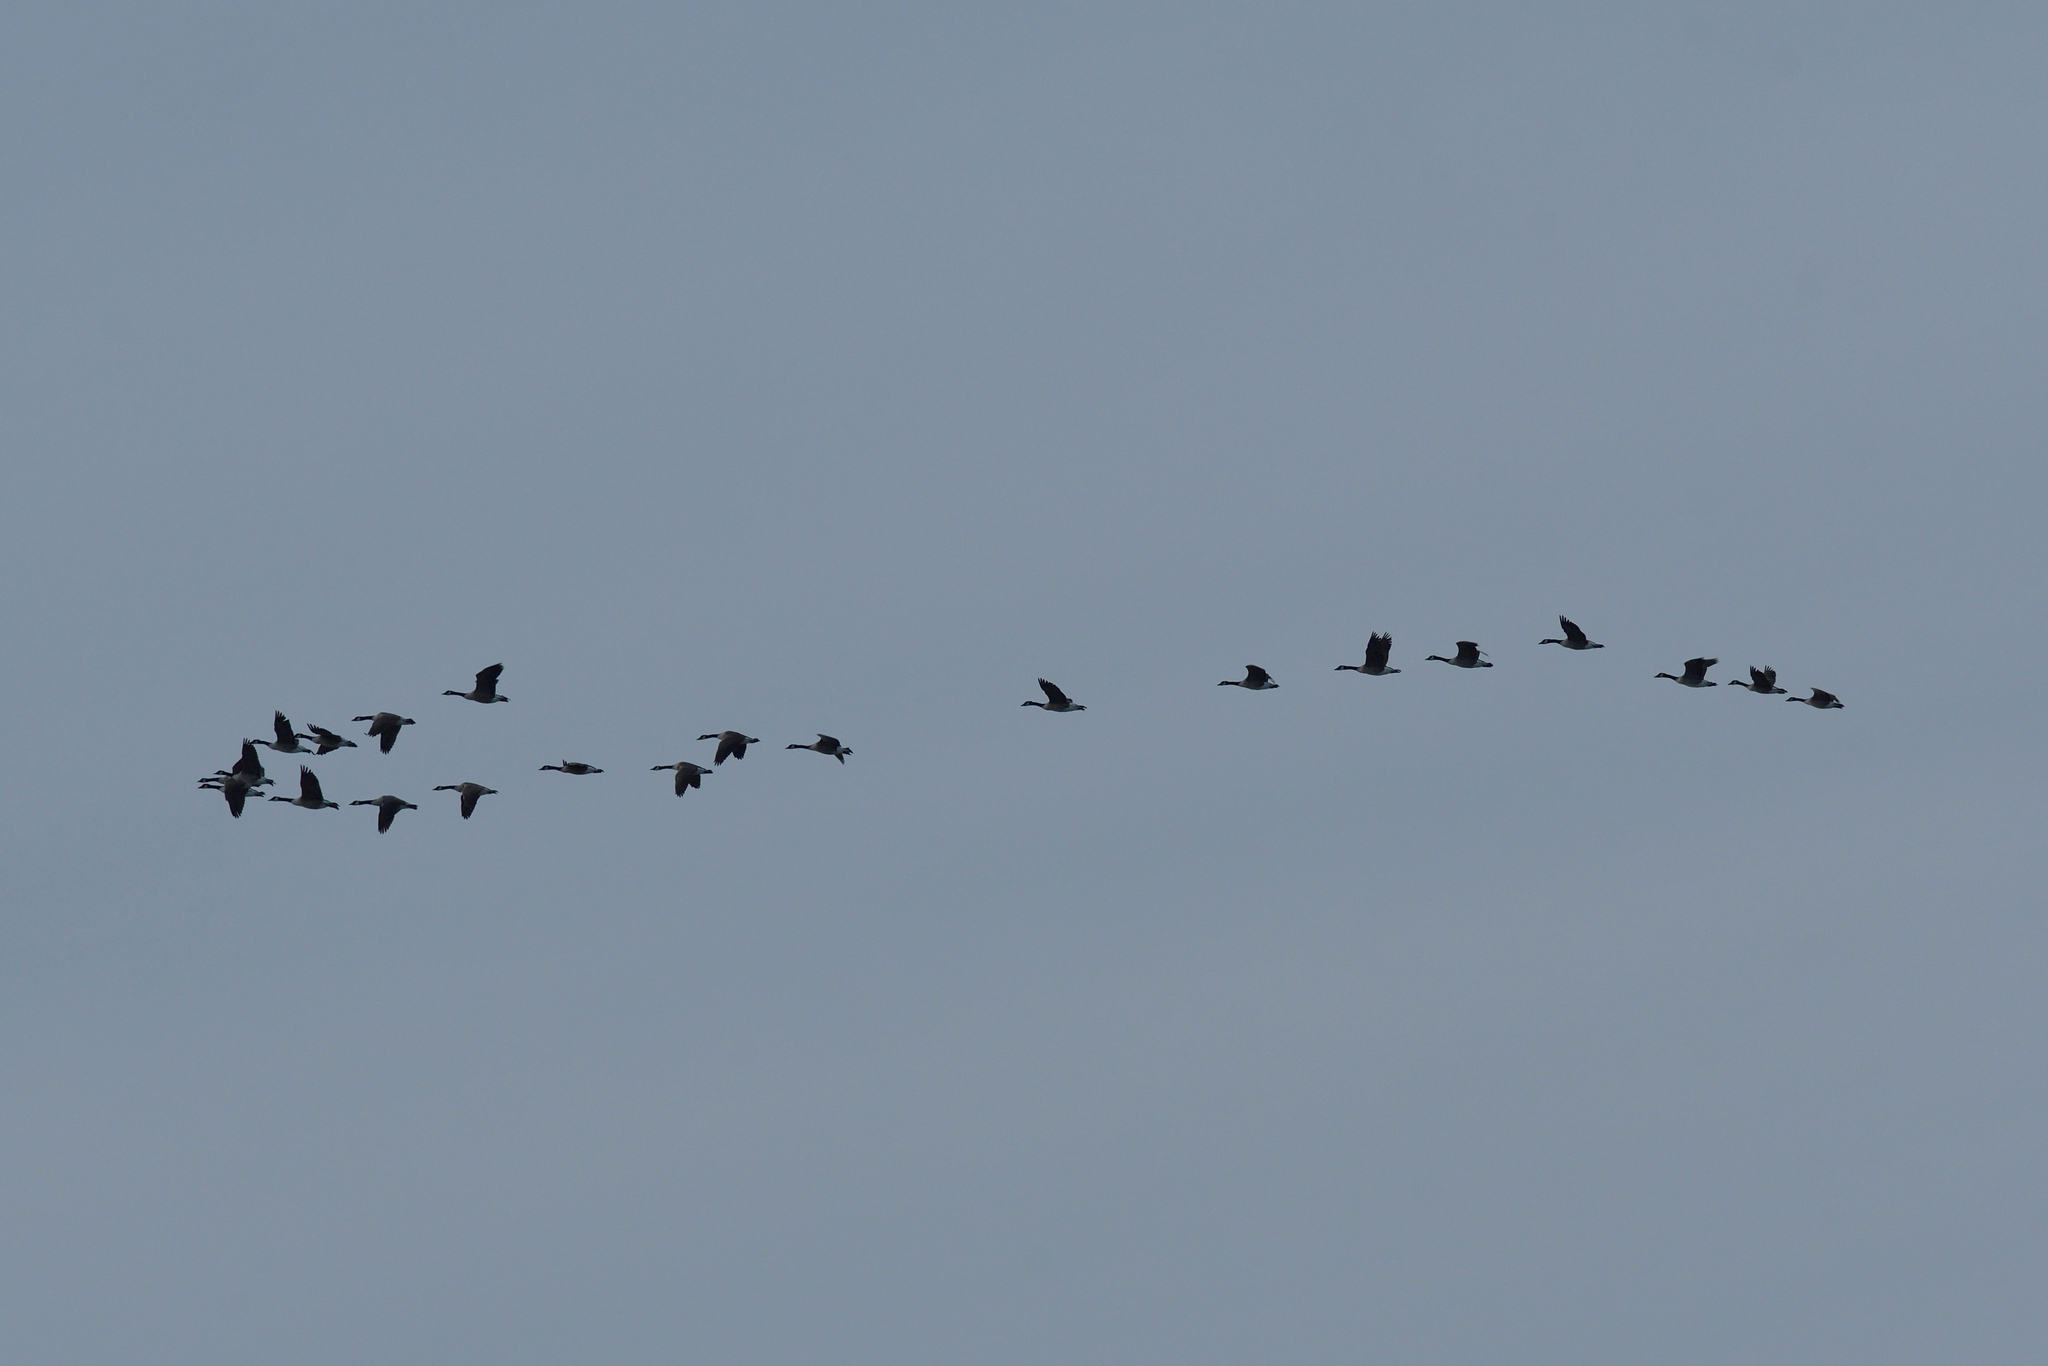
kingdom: Animalia
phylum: Chordata
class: Aves
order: Anseriformes
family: Anatidae
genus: Branta
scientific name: Branta canadensis
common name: Canada goose
